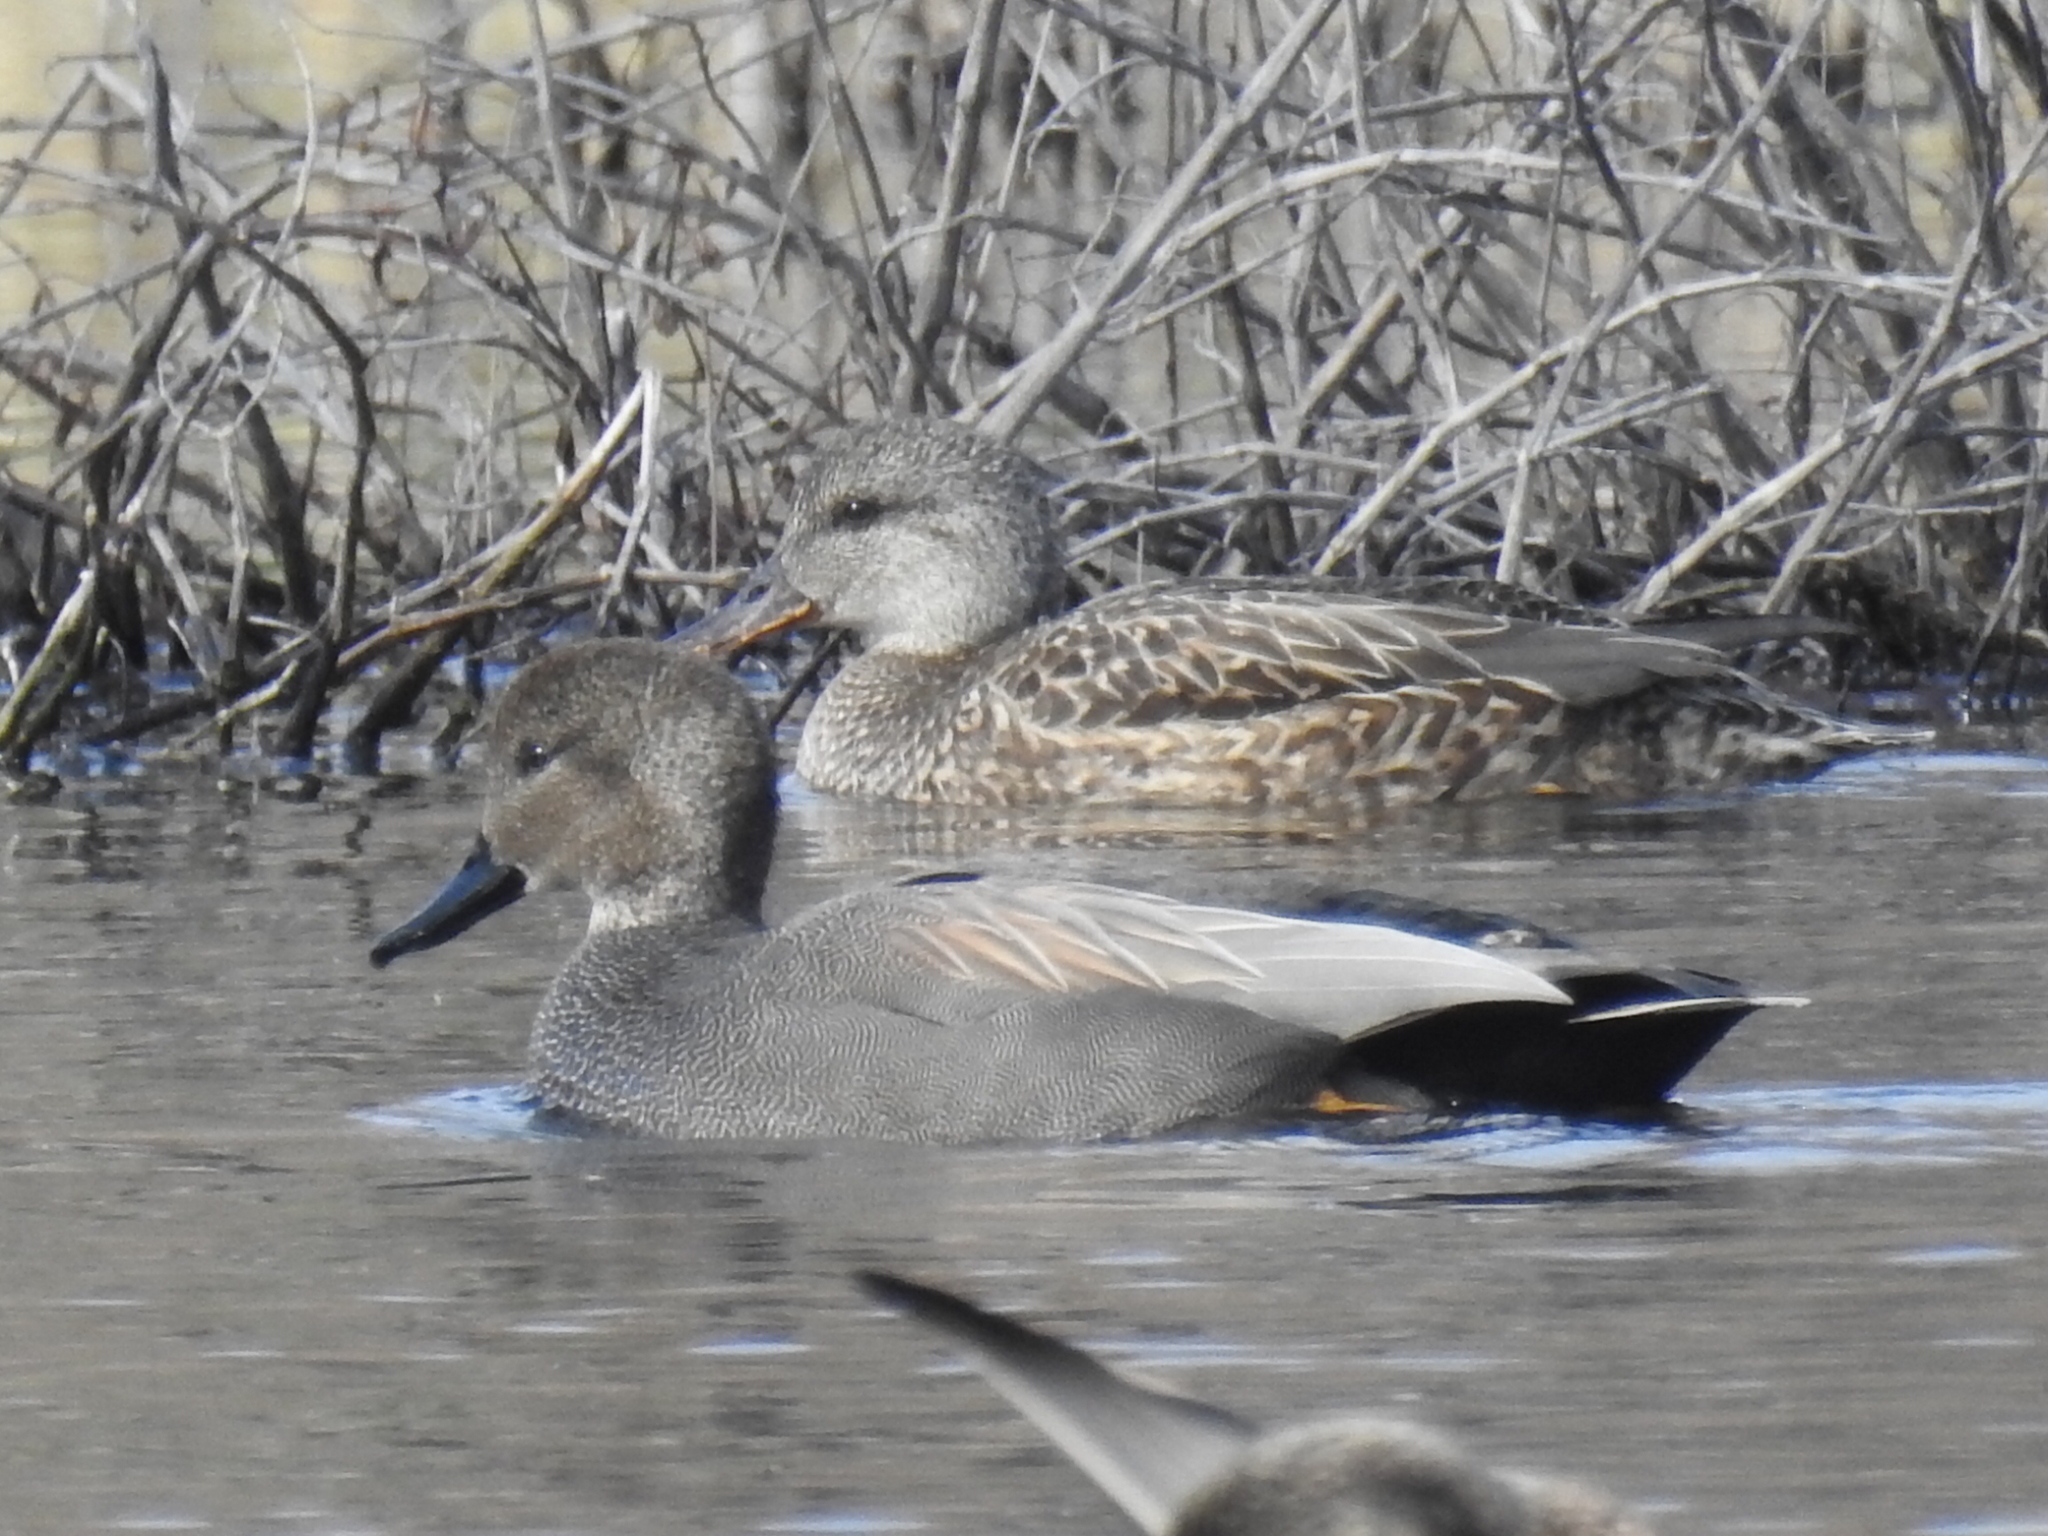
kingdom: Animalia
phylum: Chordata
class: Aves
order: Anseriformes
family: Anatidae
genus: Mareca
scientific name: Mareca strepera
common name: Gadwall
